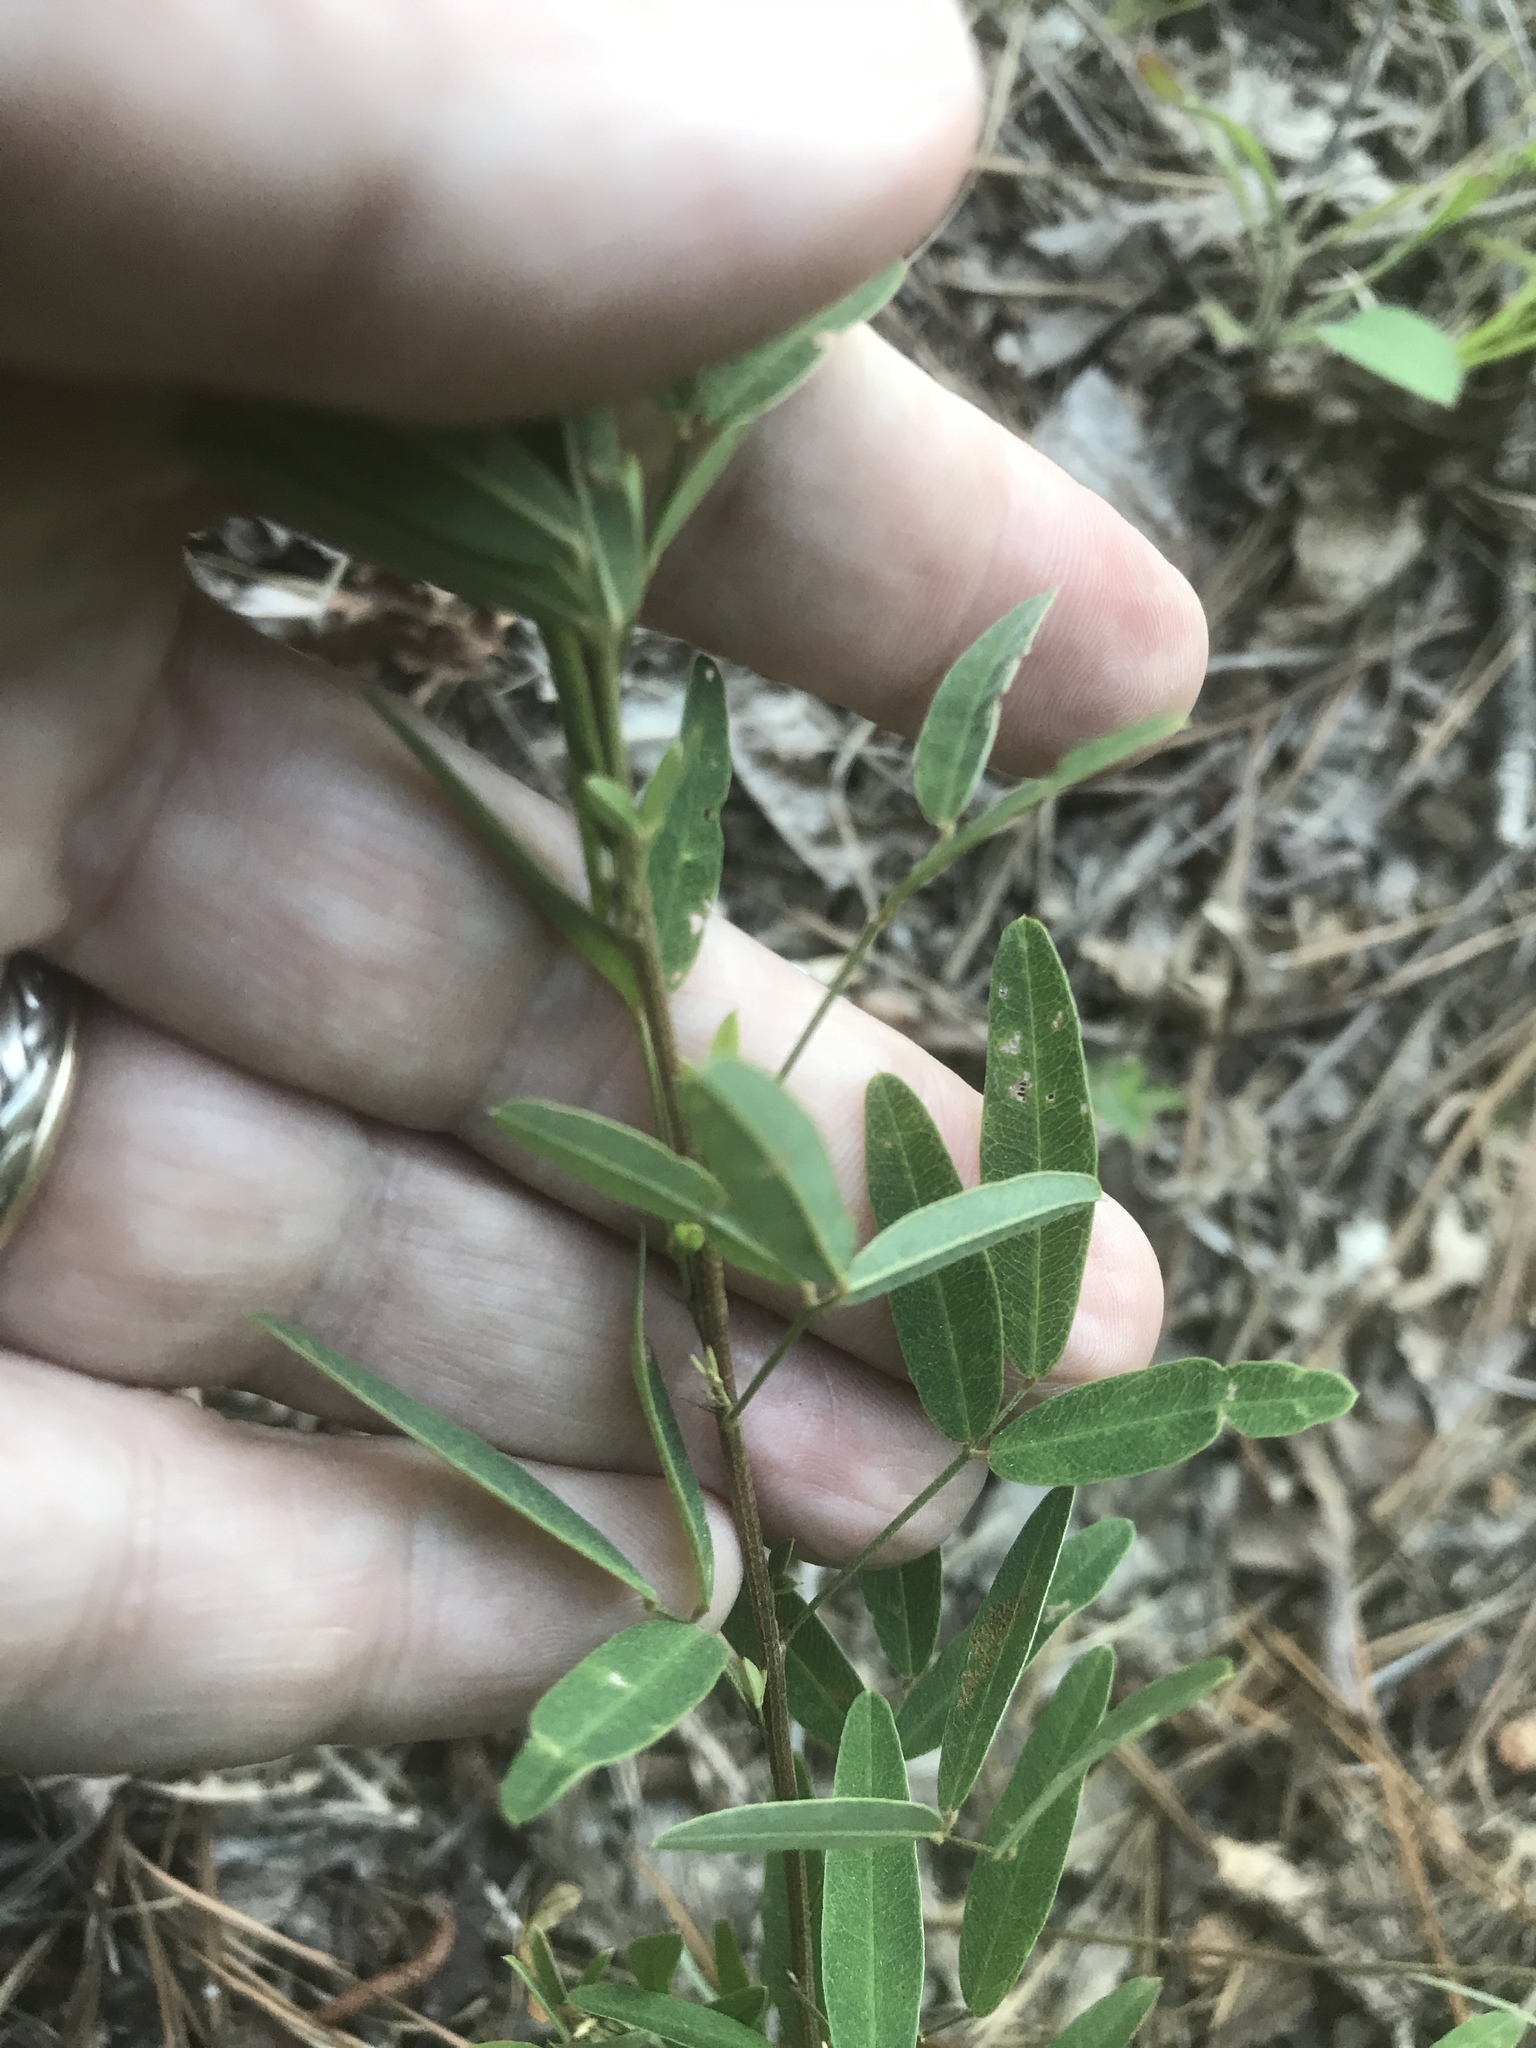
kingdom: Plantae
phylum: Tracheophyta
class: Magnoliopsida
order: Fabales
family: Fabaceae
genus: Lespedeza
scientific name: Lespedeza virginica
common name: Slender bush-clover
